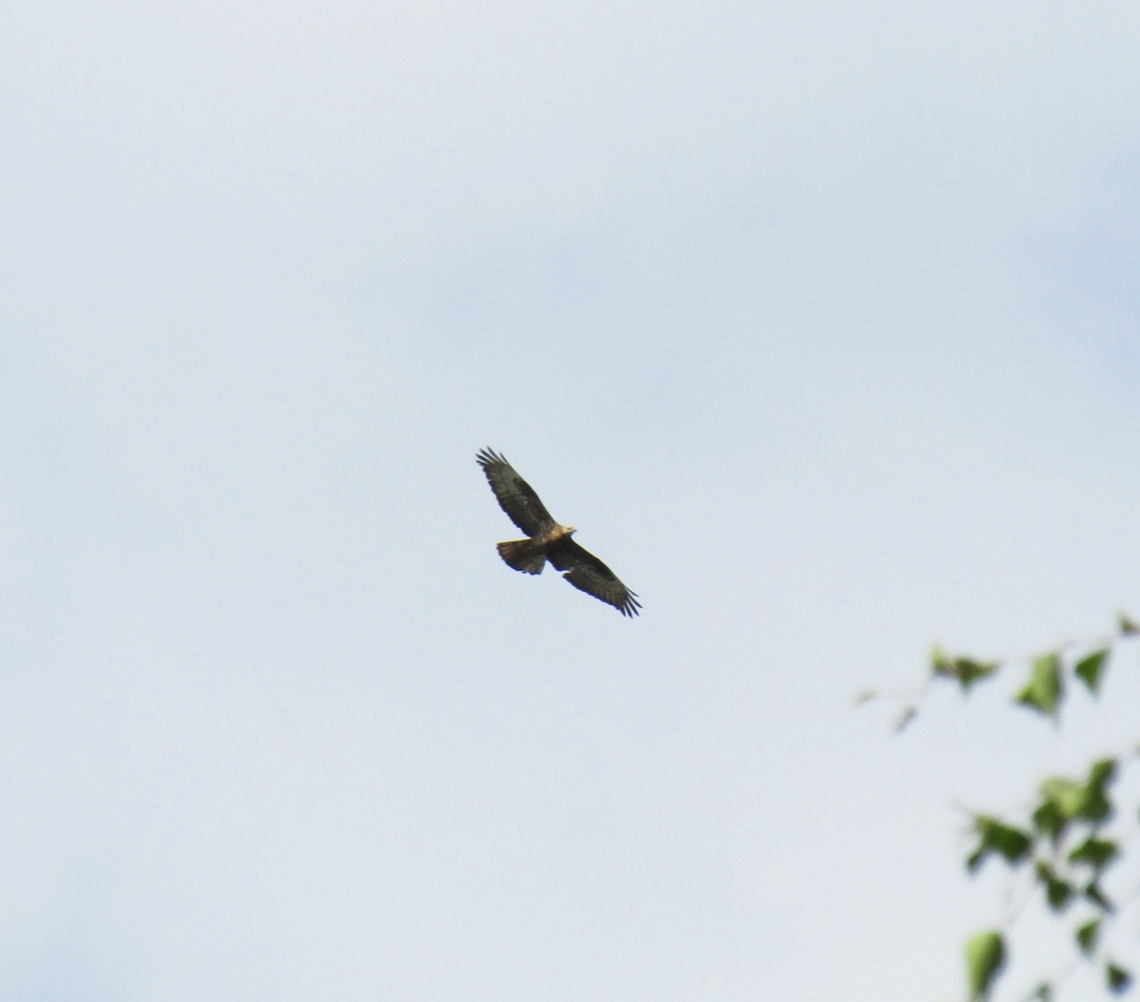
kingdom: Animalia
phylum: Chordata
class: Aves
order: Accipitriformes
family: Accipitridae
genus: Pernis
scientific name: Pernis apivorus
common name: European honey buzzard
